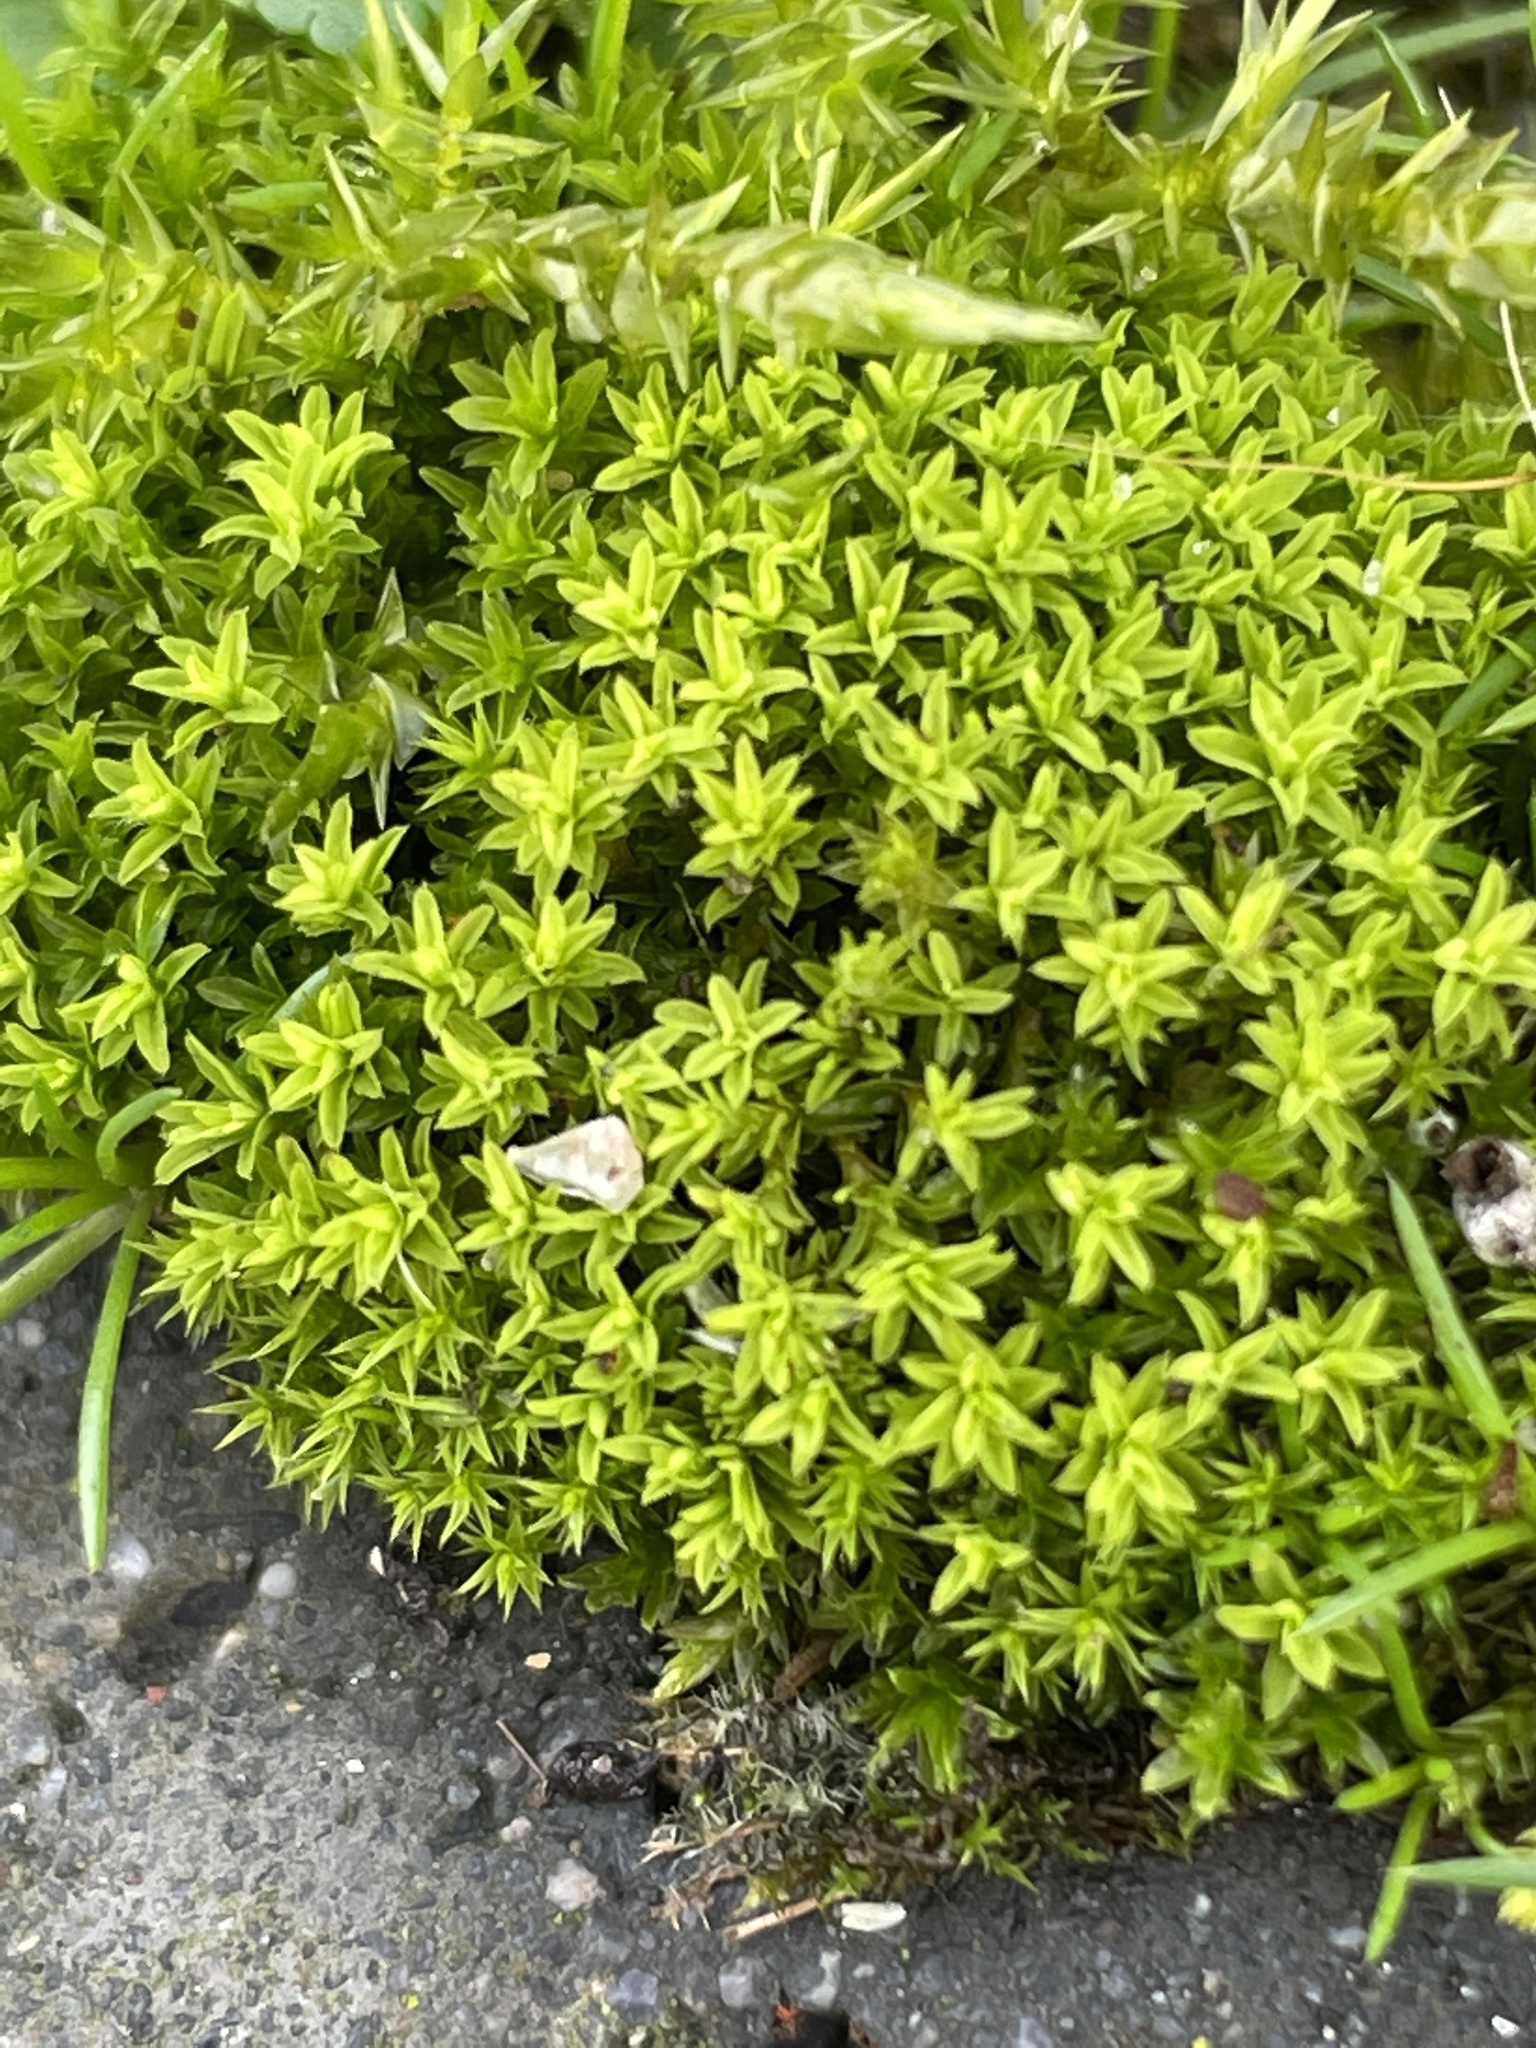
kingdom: Plantae
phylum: Bryophyta
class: Bryopsida
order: Pottiales
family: Pottiaceae
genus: Barbula
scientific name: Barbula unguiculata
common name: Prickly beard moss
